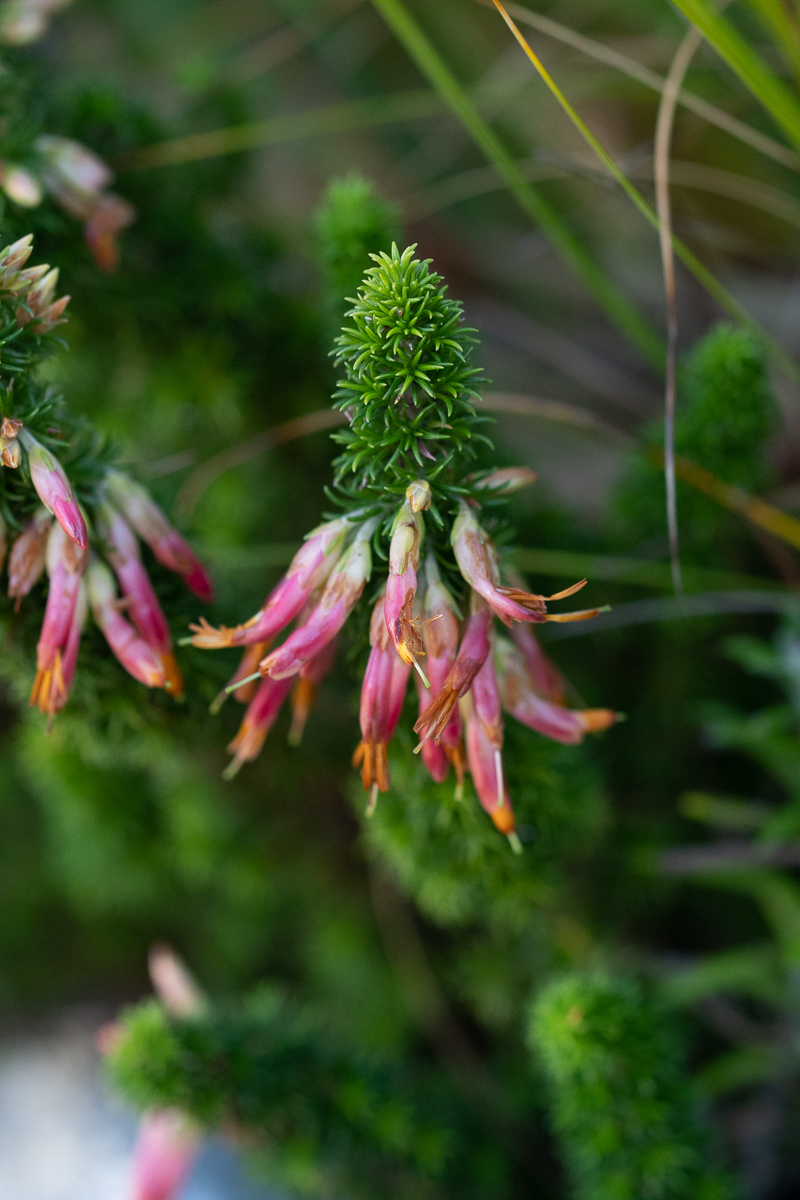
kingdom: Plantae
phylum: Tracheophyta
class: Magnoliopsida
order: Ericales
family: Ericaceae
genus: Erica
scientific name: Erica coccinea
